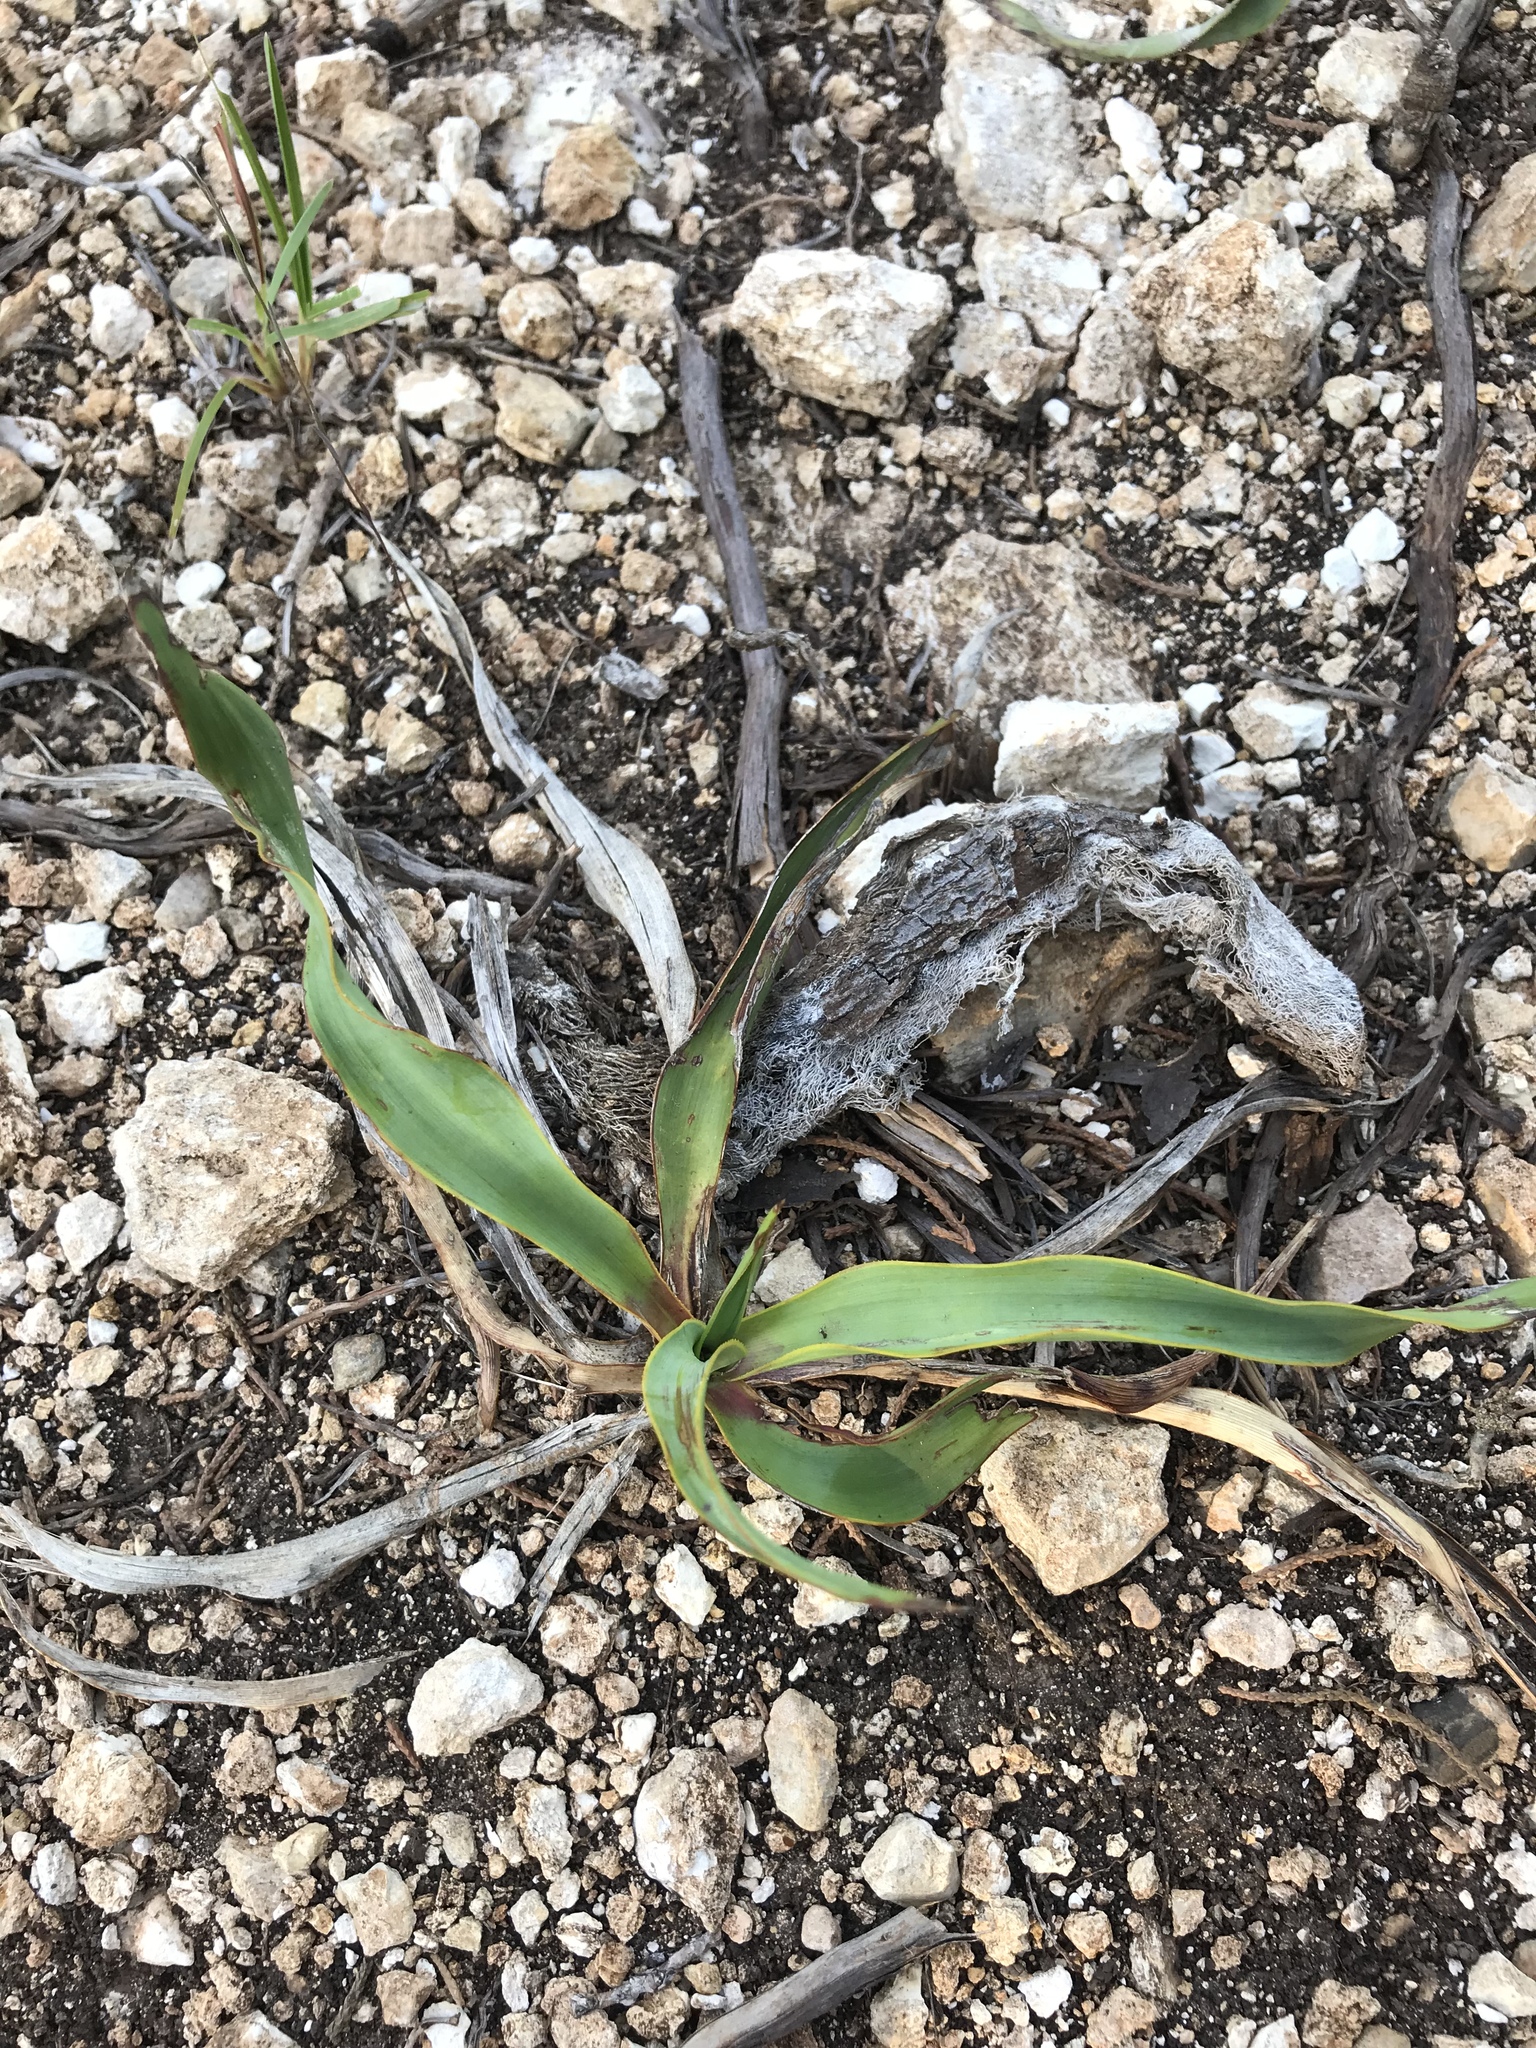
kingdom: Plantae
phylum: Tracheophyta
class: Liliopsida
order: Asparagales
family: Asparagaceae
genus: Yucca
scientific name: Yucca rupicola
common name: Twisted-leaf spanish-dagger
